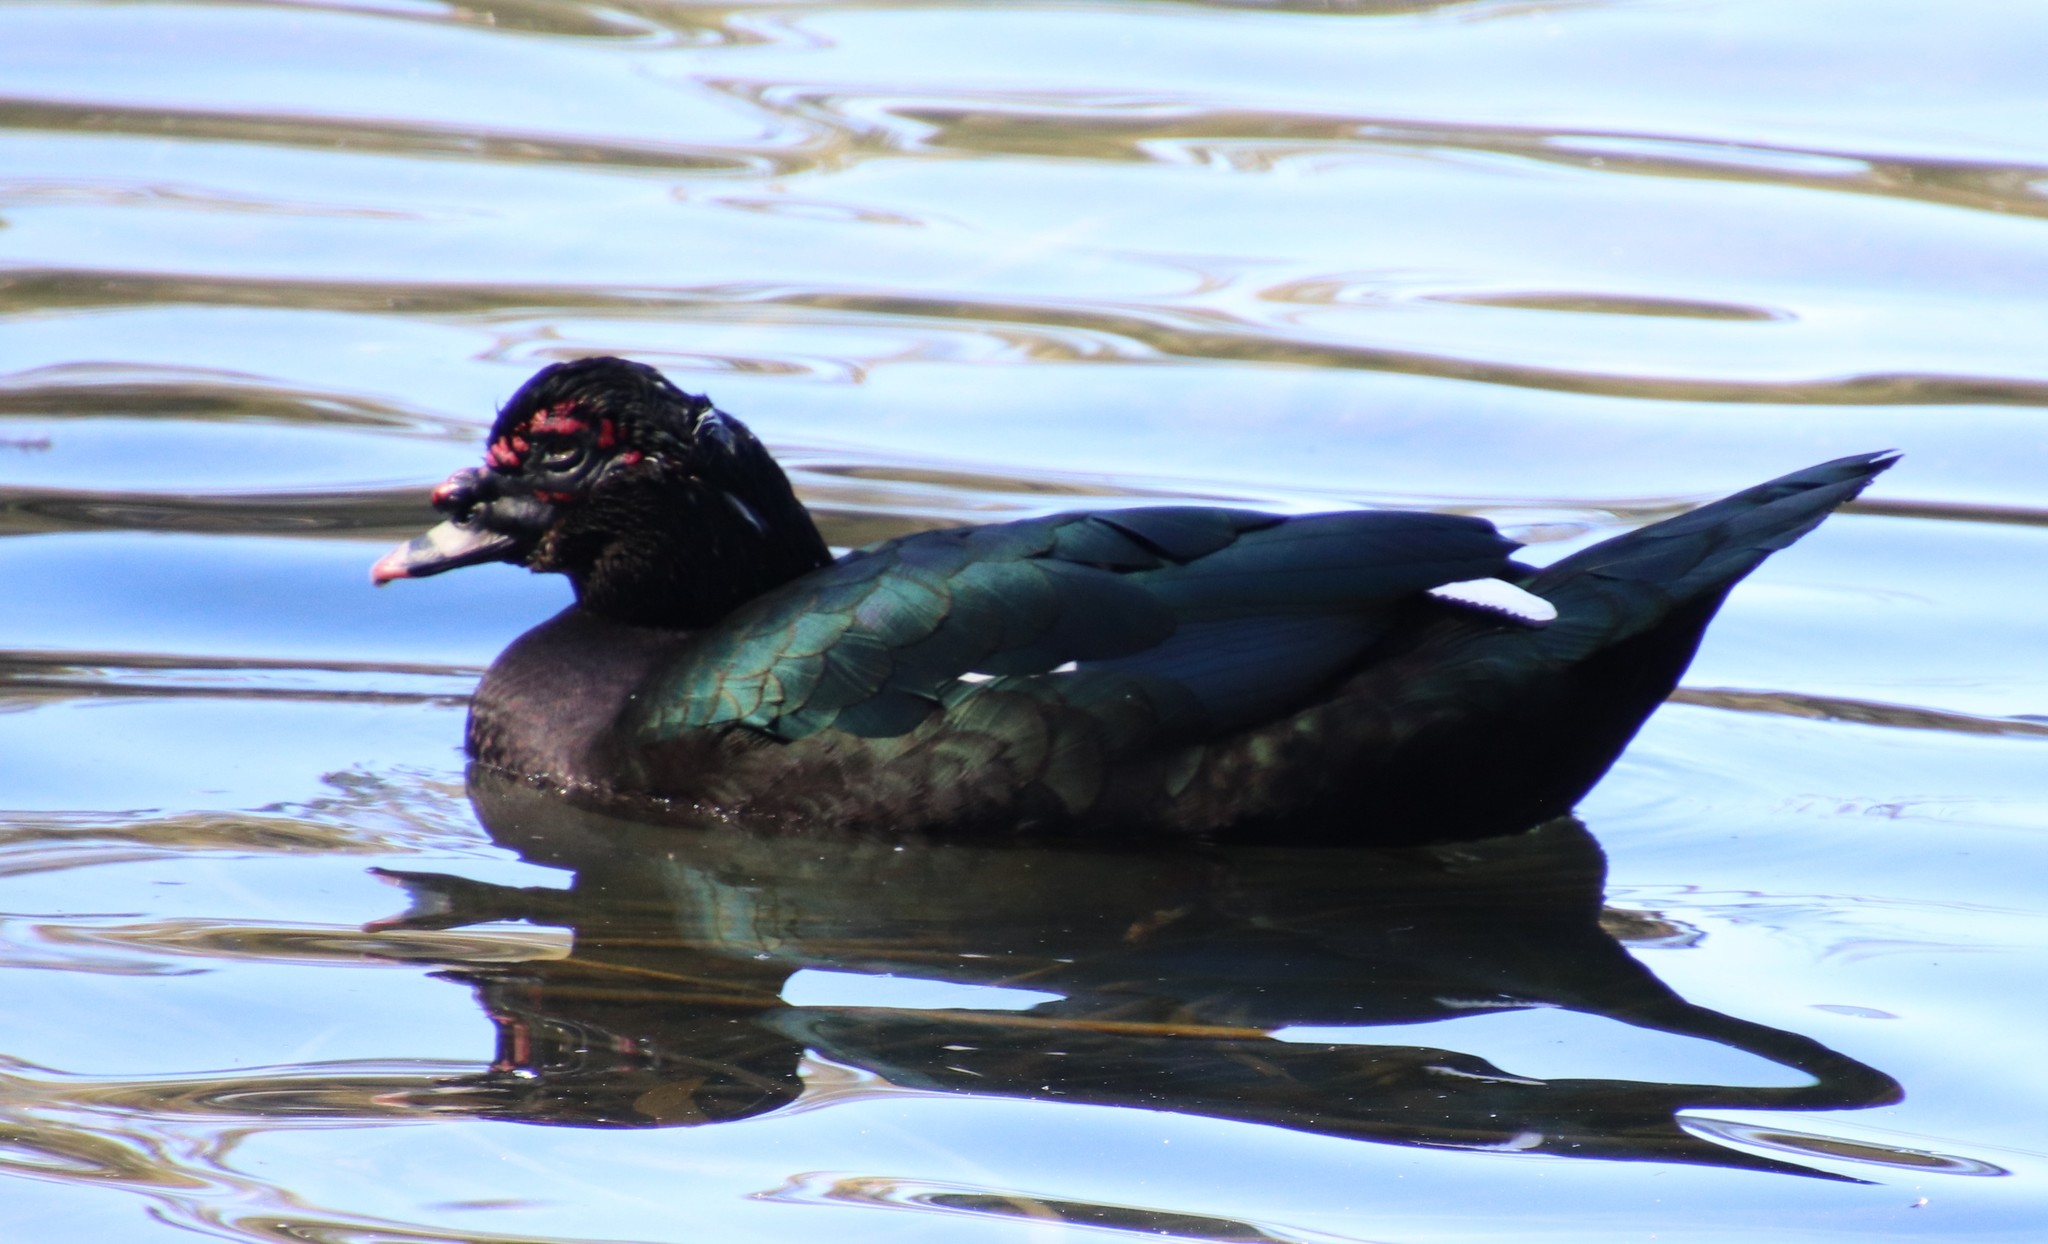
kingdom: Animalia
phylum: Chordata
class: Aves
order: Anseriformes
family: Anatidae
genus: Cairina
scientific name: Cairina moschata
